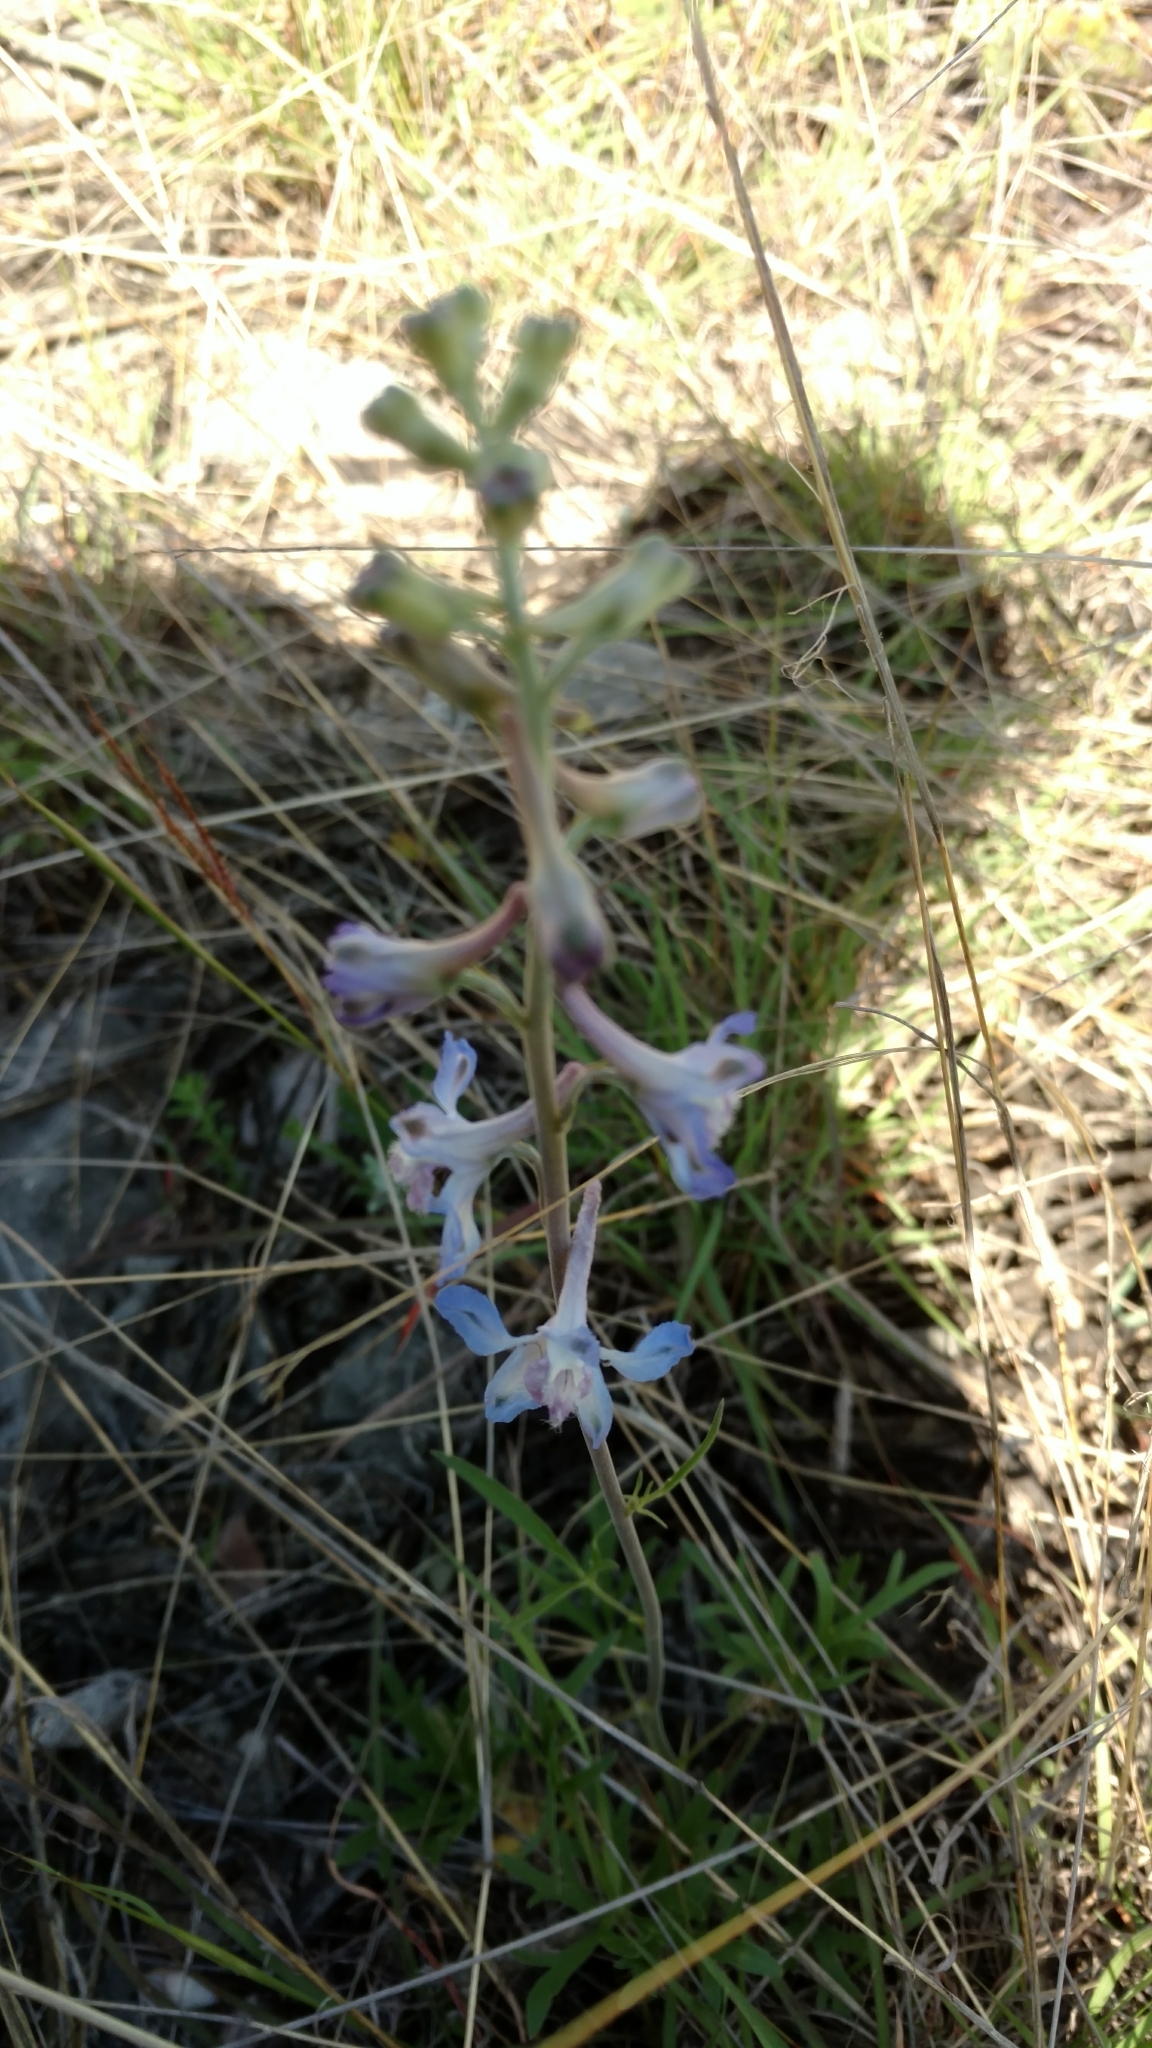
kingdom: Plantae
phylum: Tracheophyta
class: Magnoliopsida
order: Ranunculales
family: Ranunculaceae
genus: Delphinium
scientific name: Delphinium carolinianum
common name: Carolina larkspur
